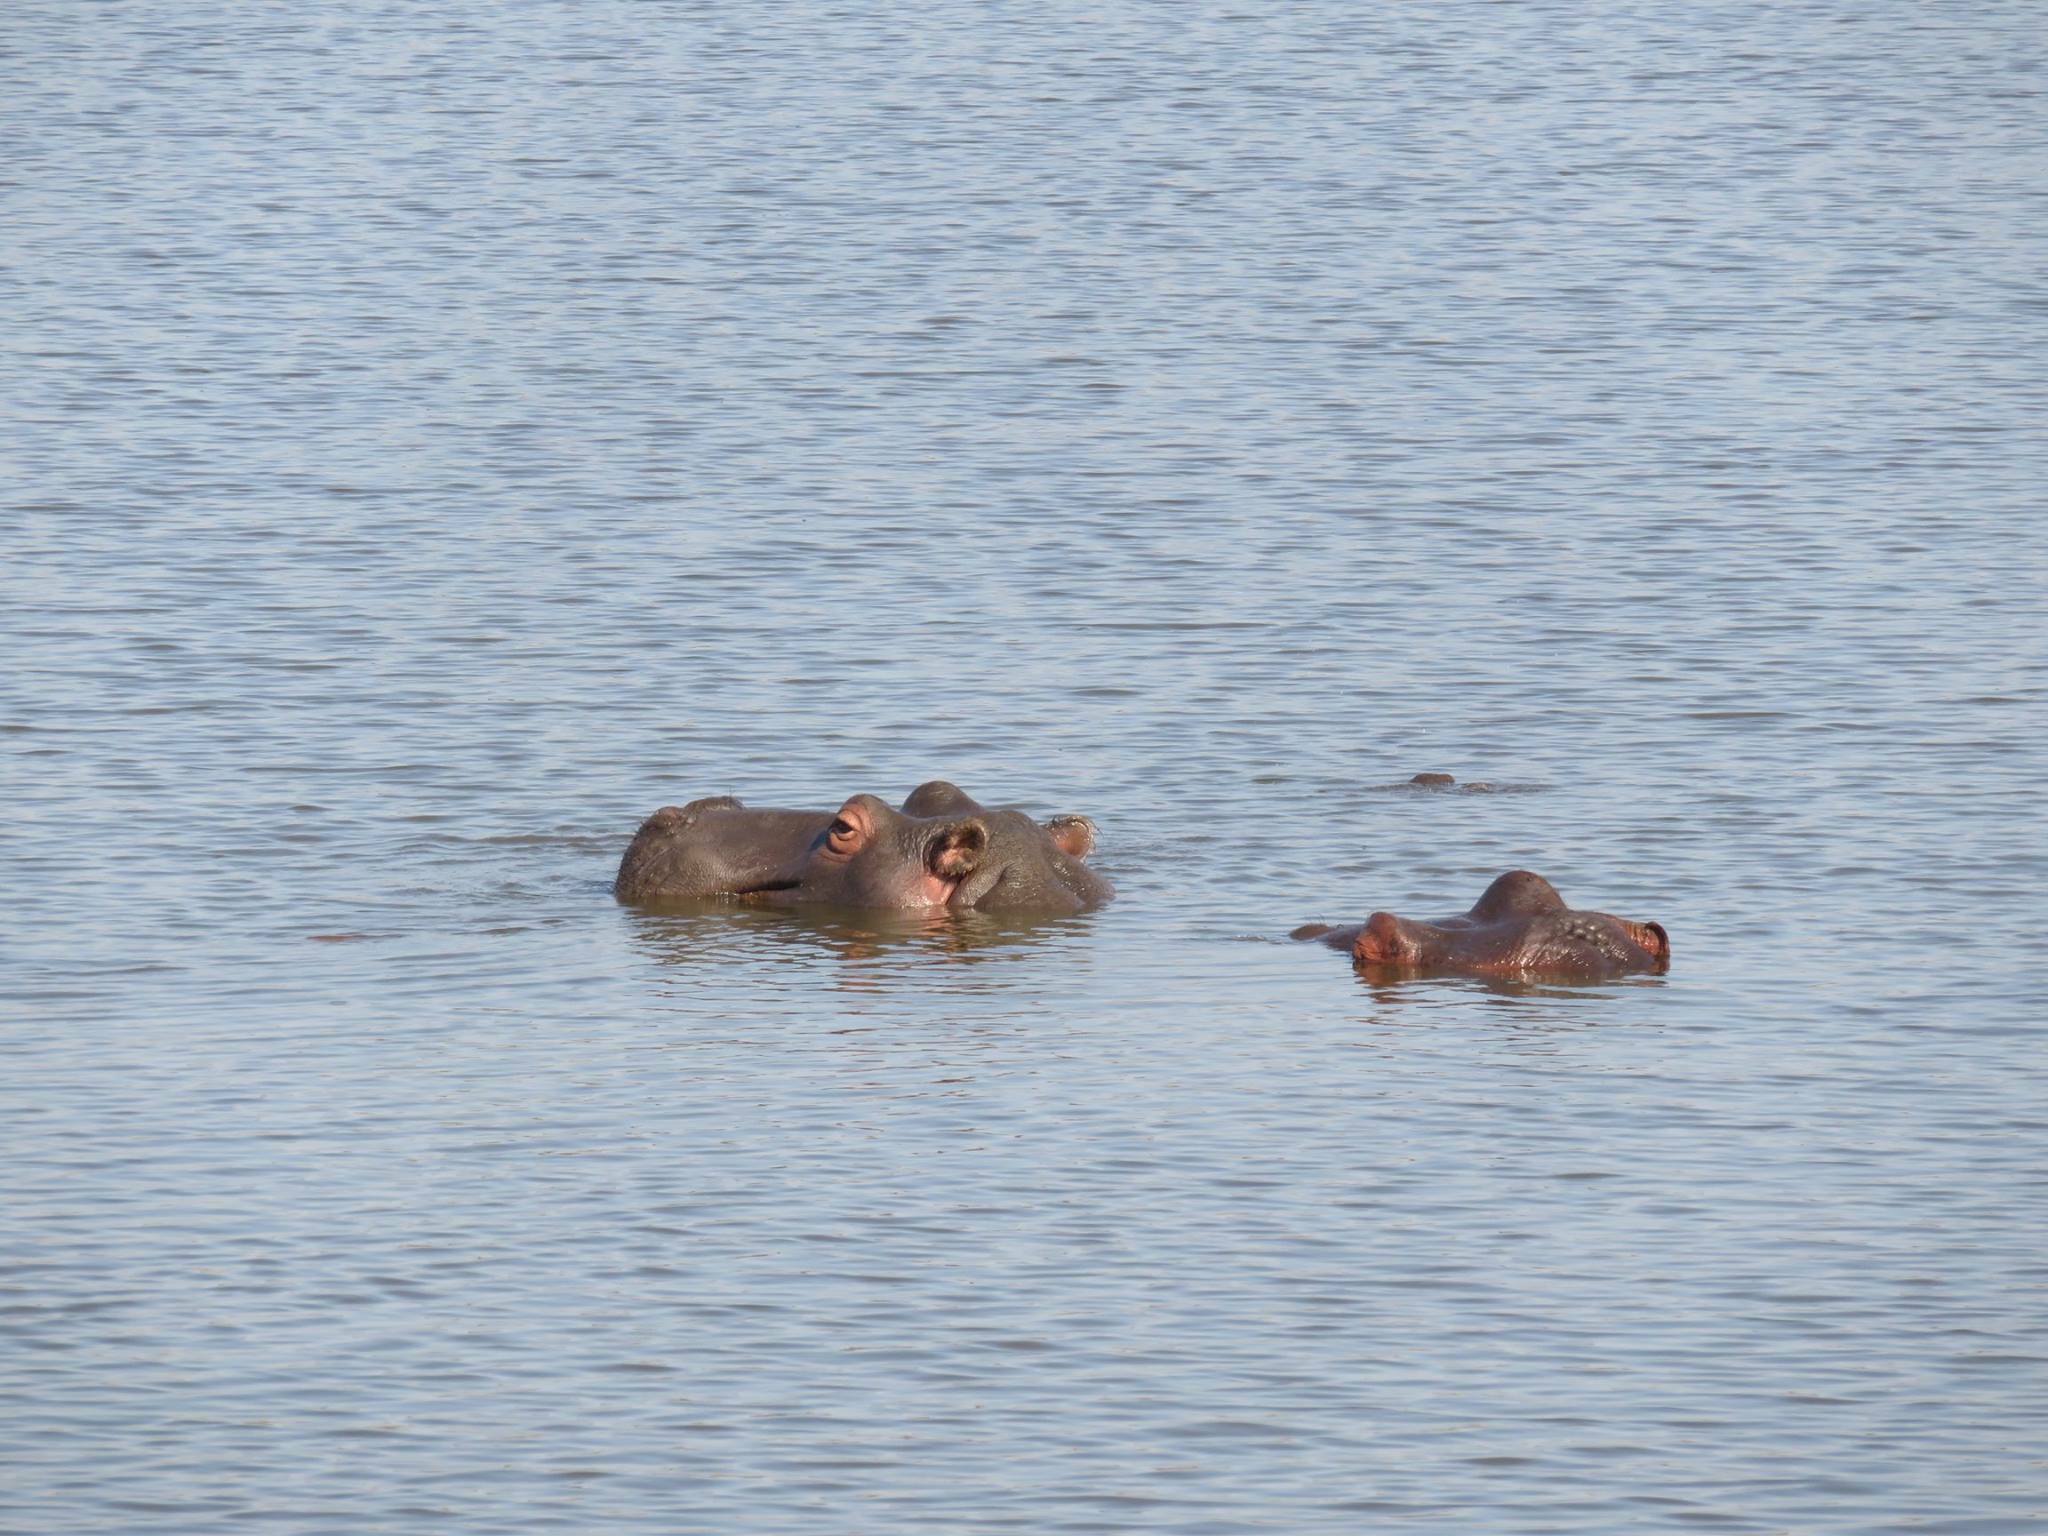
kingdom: Animalia
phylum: Chordata
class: Mammalia
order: Artiodactyla
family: Hippopotamidae
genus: Hippopotamus
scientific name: Hippopotamus amphibius
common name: Common hippopotamus
